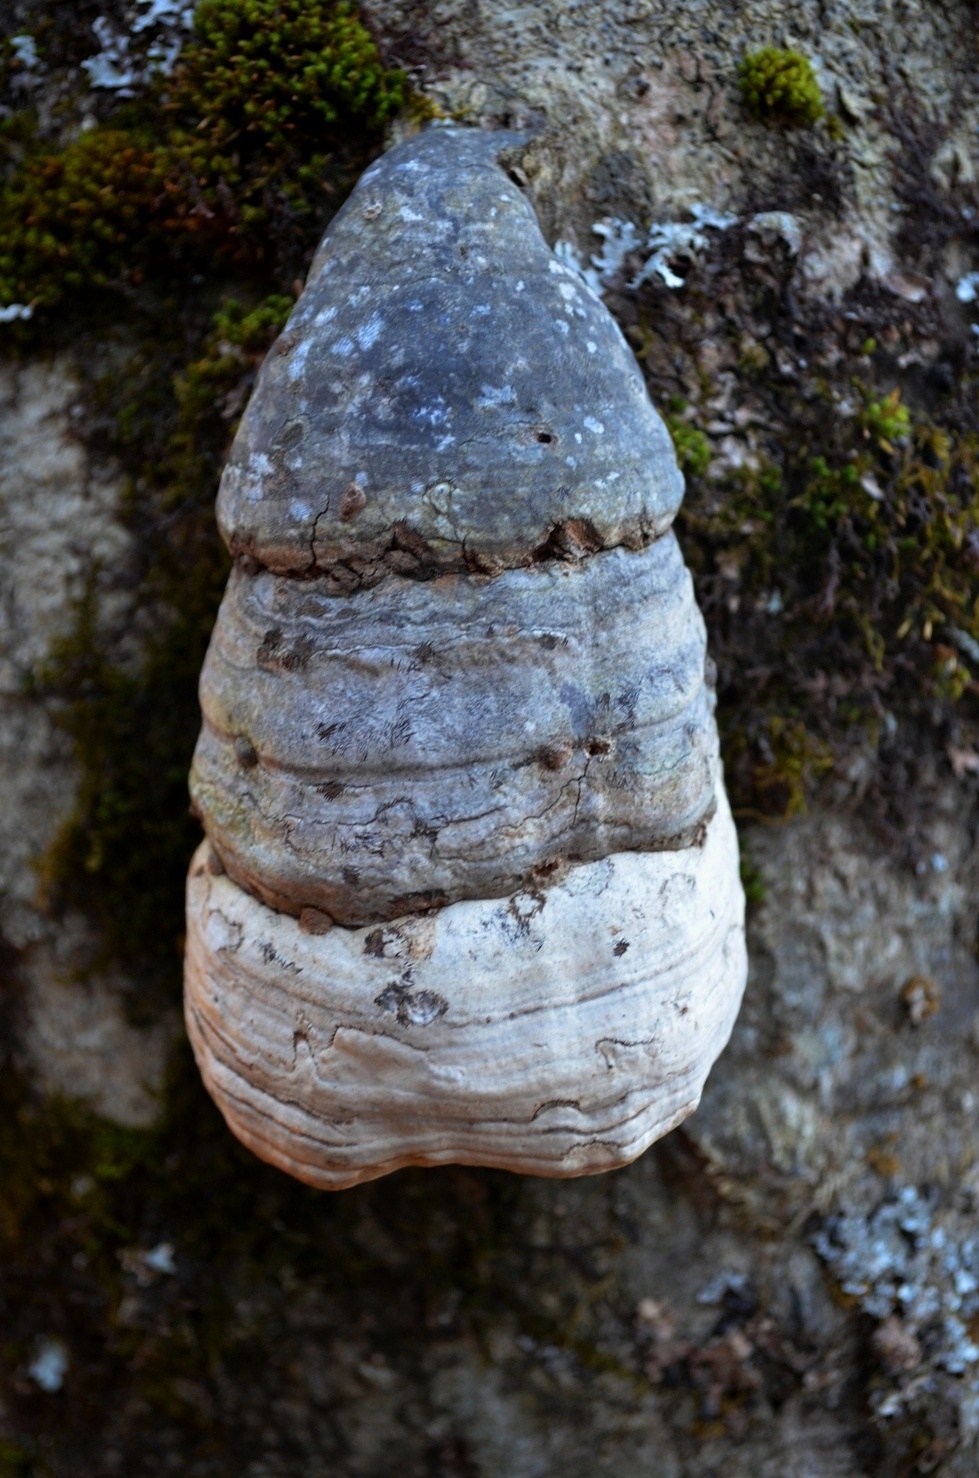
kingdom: Fungi
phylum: Basidiomycota
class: Agaricomycetes
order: Polyporales
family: Polyporaceae
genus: Fomes
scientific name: Fomes fomentarius
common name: Hoof fungus
